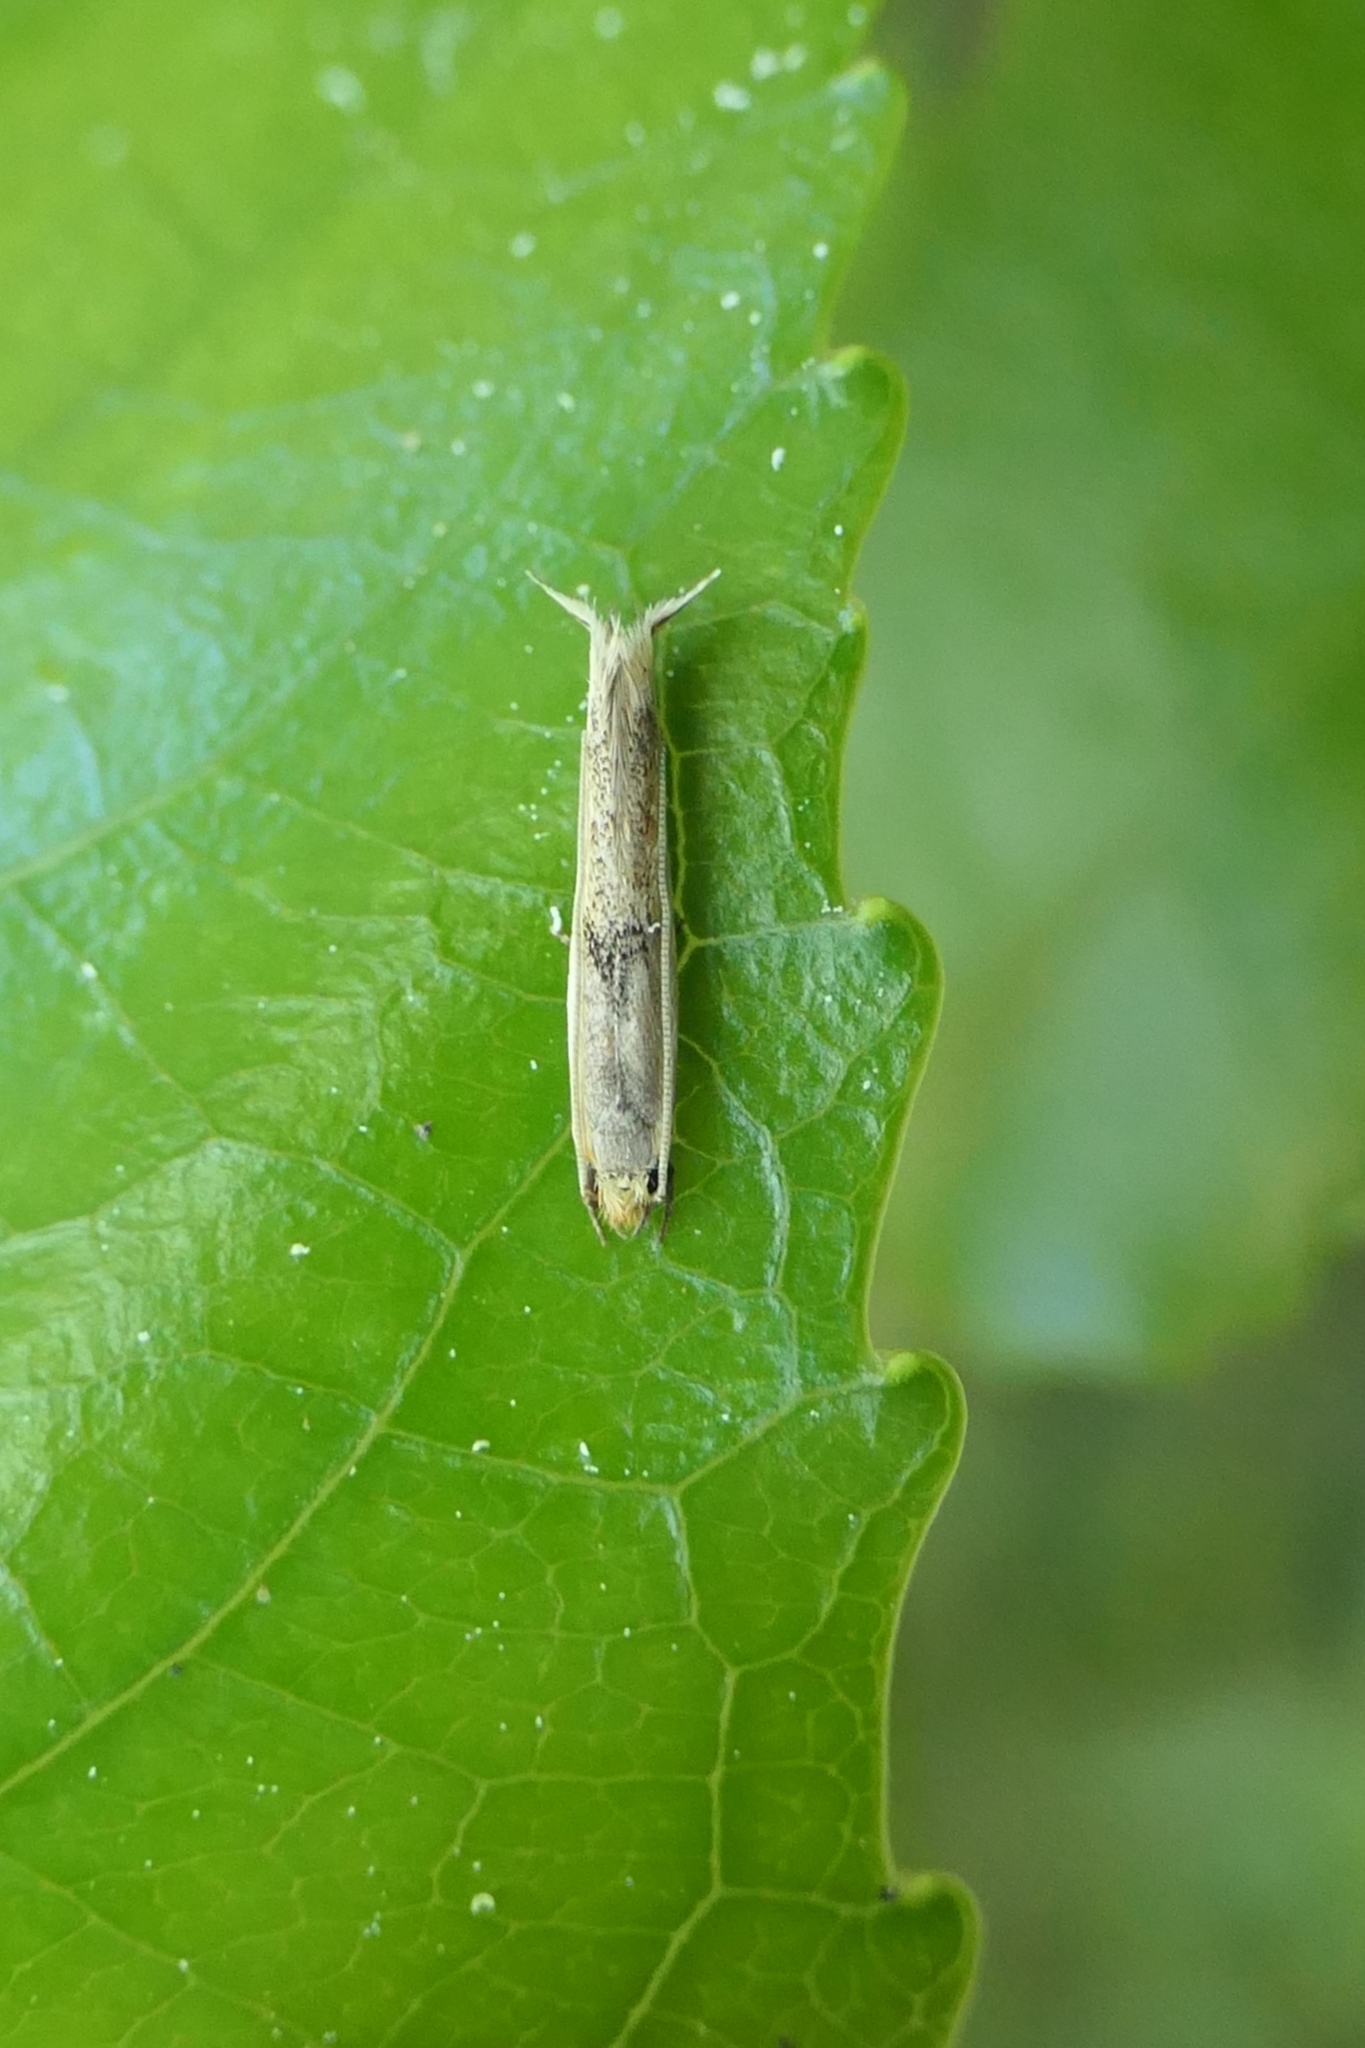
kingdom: Animalia
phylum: Arthropoda
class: Insecta
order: Lepidoptera
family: Tineidae
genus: Erechthias
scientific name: Erechthias charadrota
